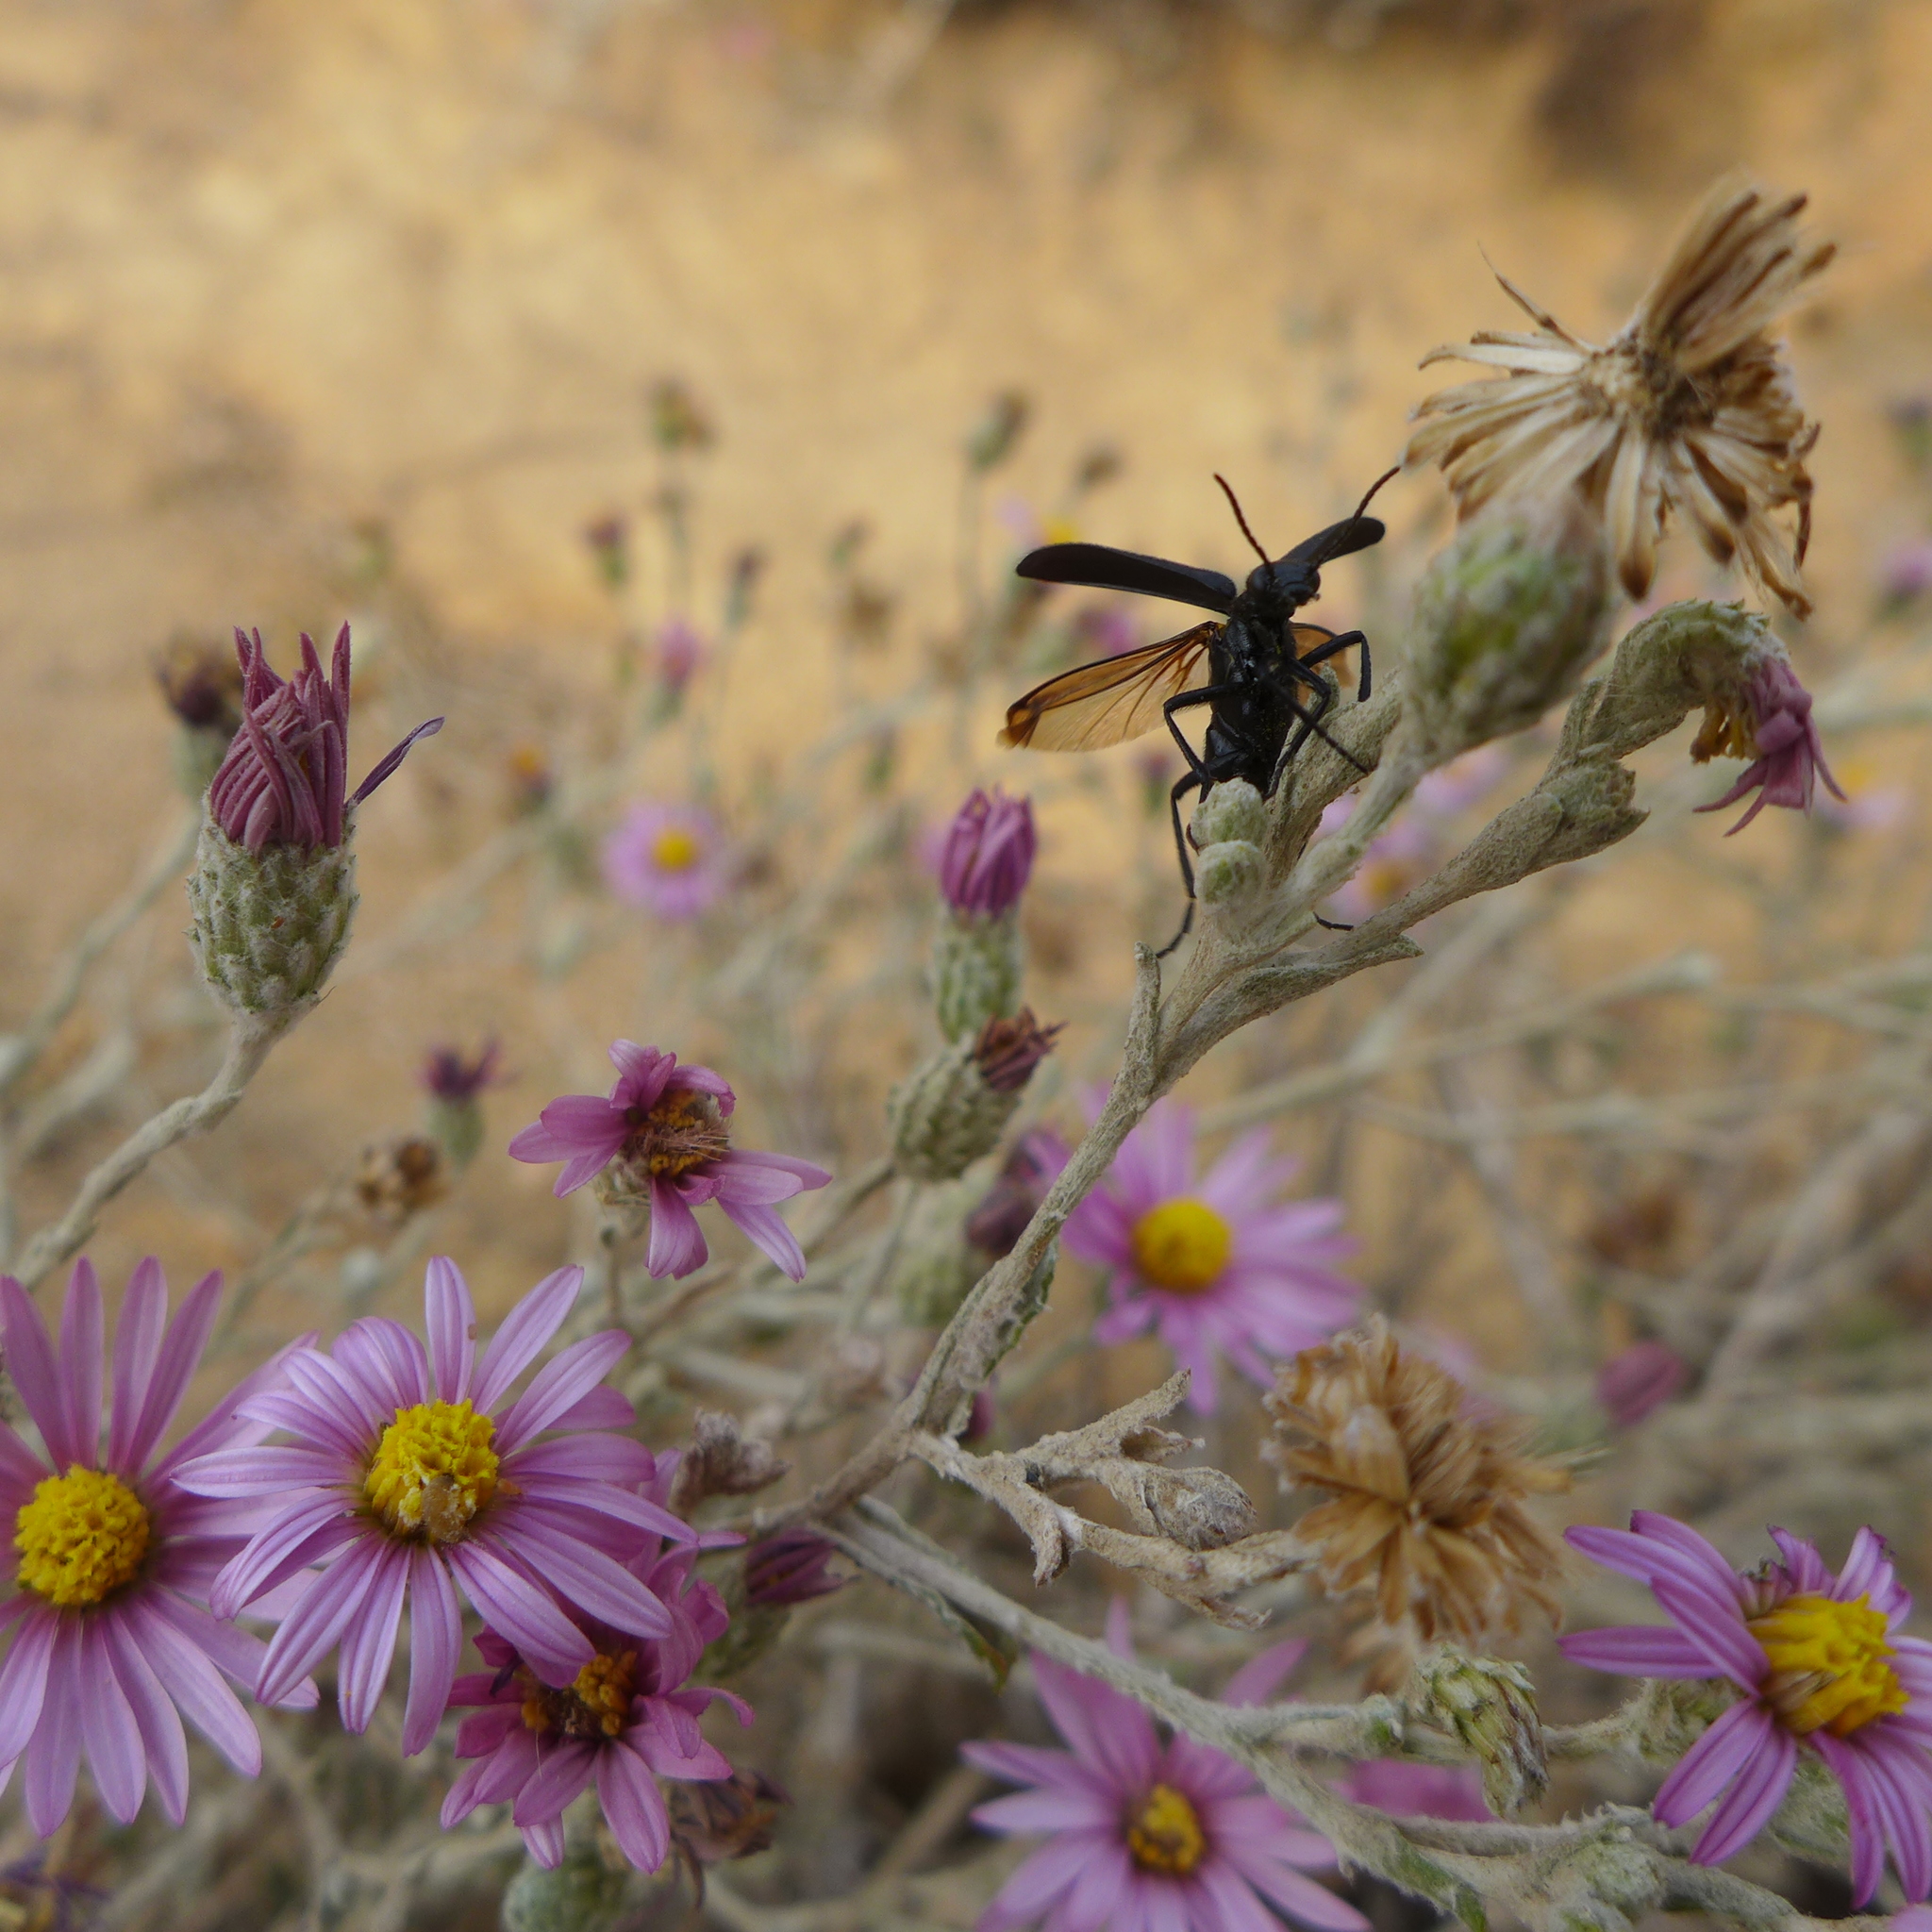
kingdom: Plantae
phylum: Tracheophyta
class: Magnoliopsida
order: Asterales
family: Asteraceae
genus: Corethrogyne
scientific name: Corethrogyne filaginifolia
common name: Sand-aster
